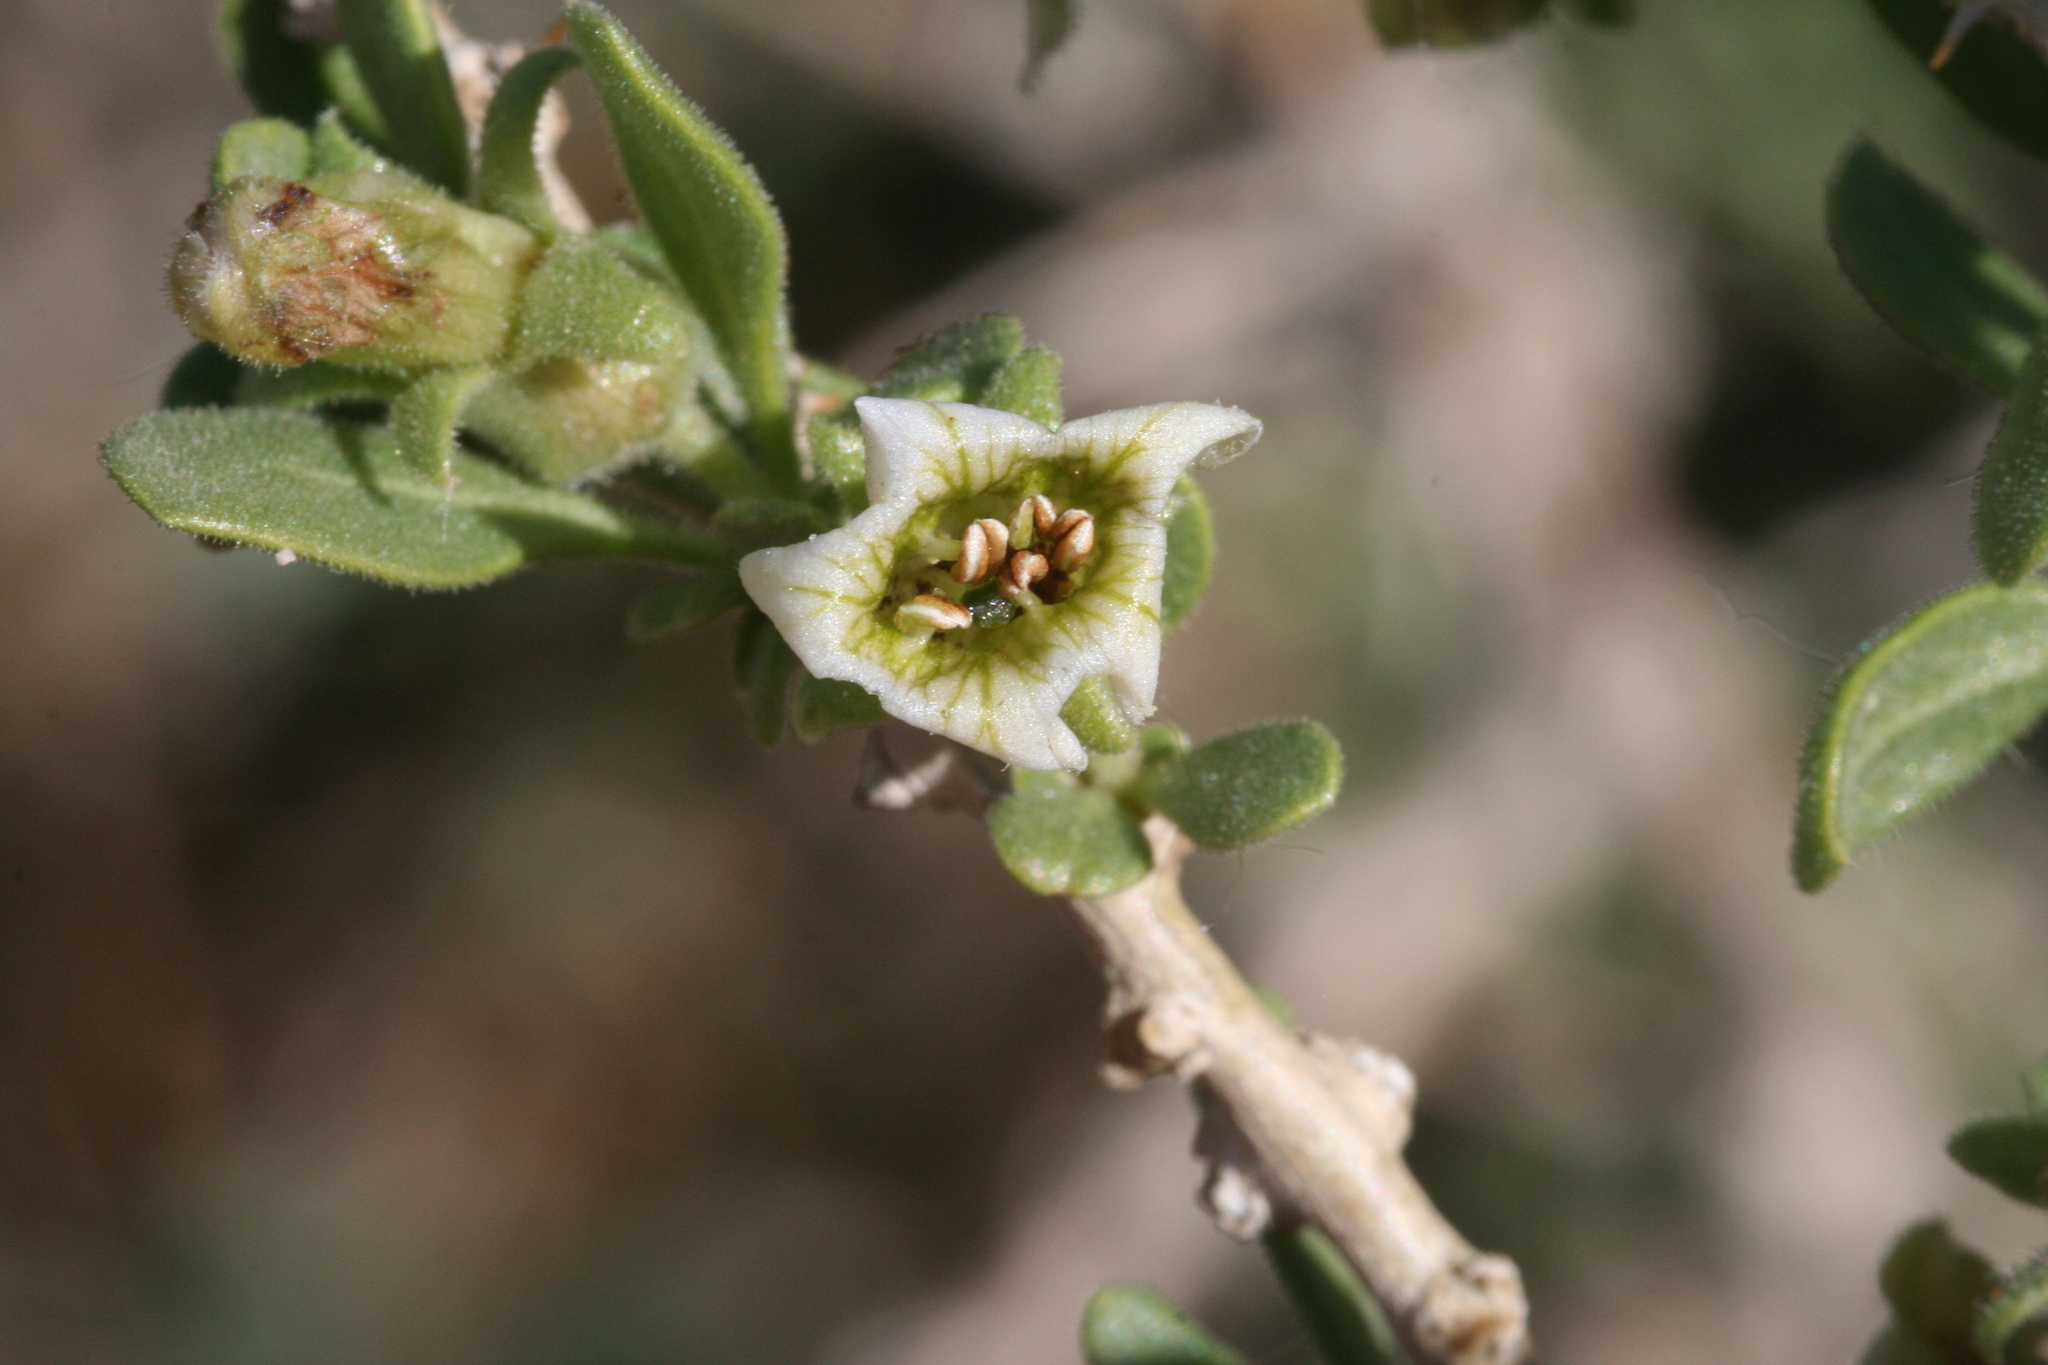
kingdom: Plantae
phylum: Tracheophyta
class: Magnoliopsida
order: Solanales
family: Solanaceae
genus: Lycium
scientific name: Lycium cooperi
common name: Peachthorn
